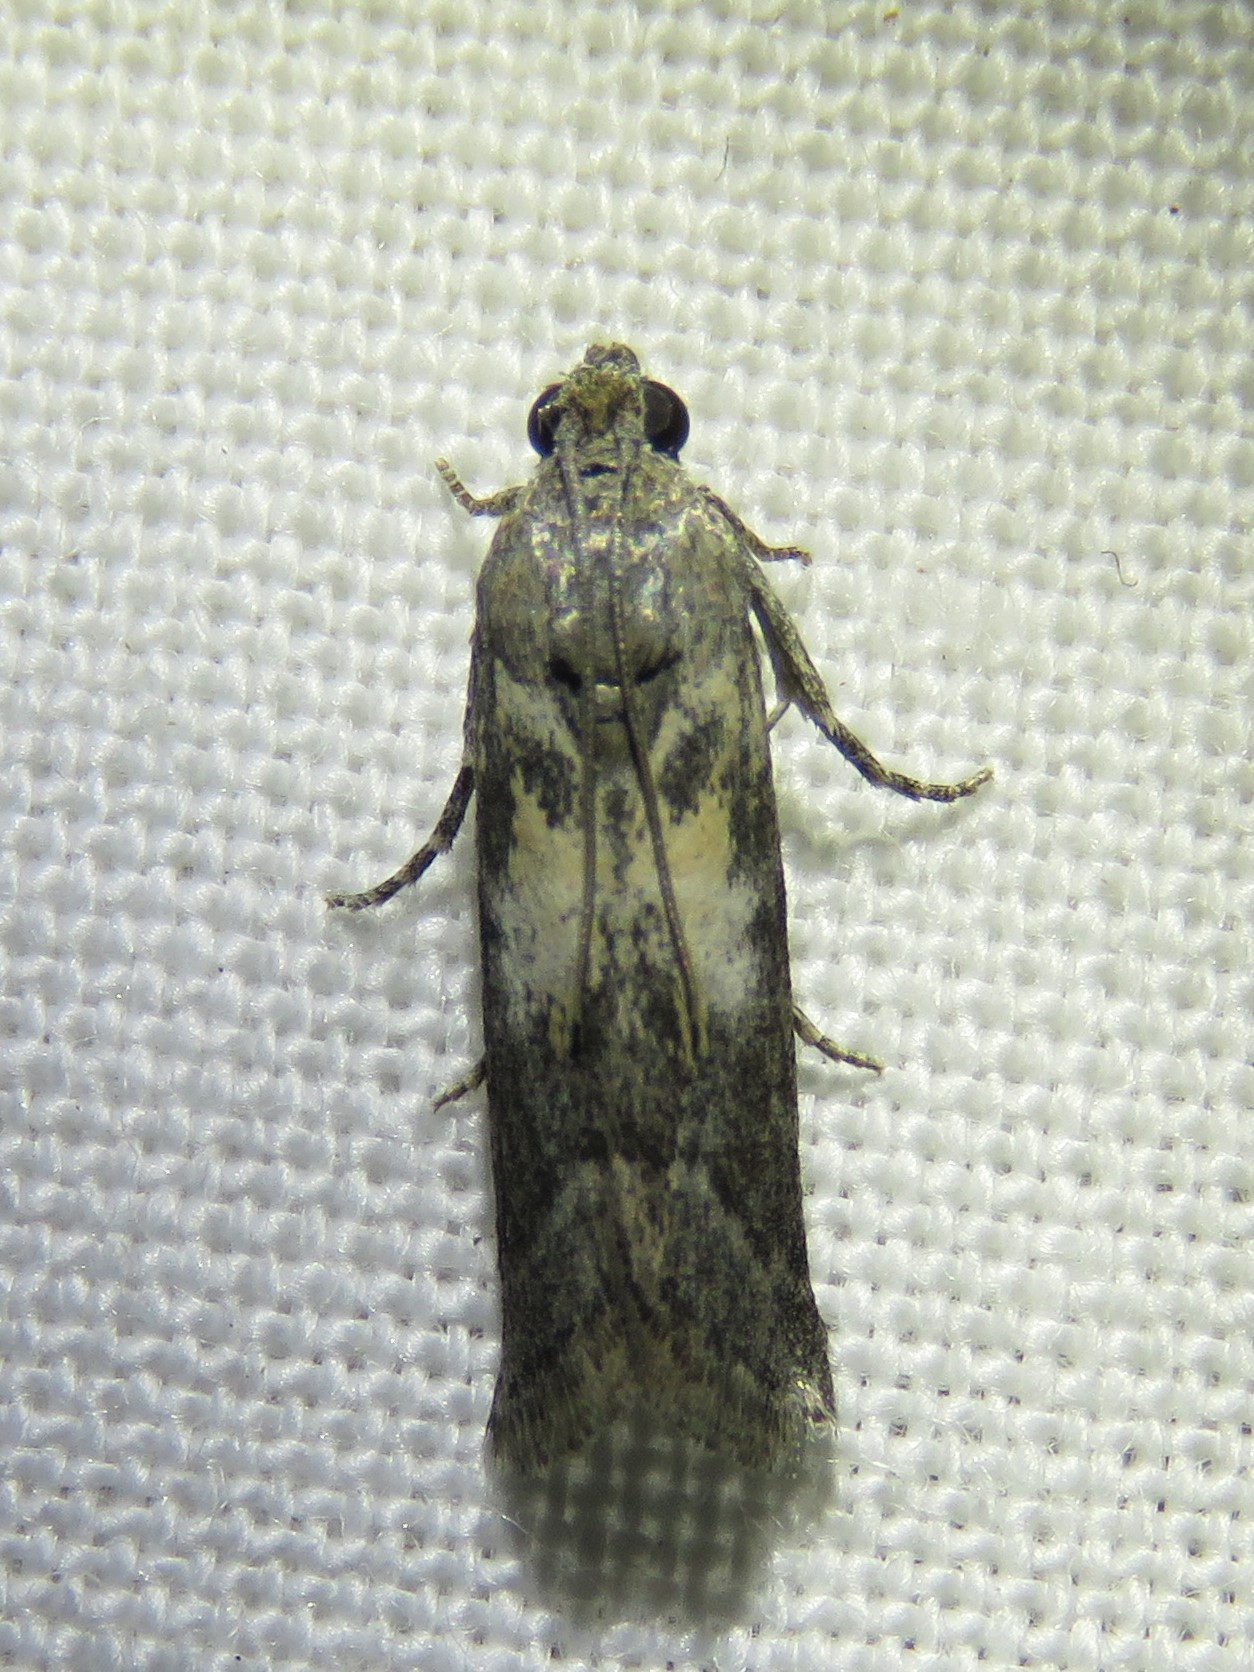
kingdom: Animalia
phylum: Arthropoda
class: Insecta
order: Lepidoptera
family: Pyralidae
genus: Tacoma
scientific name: Tacoma feriella
